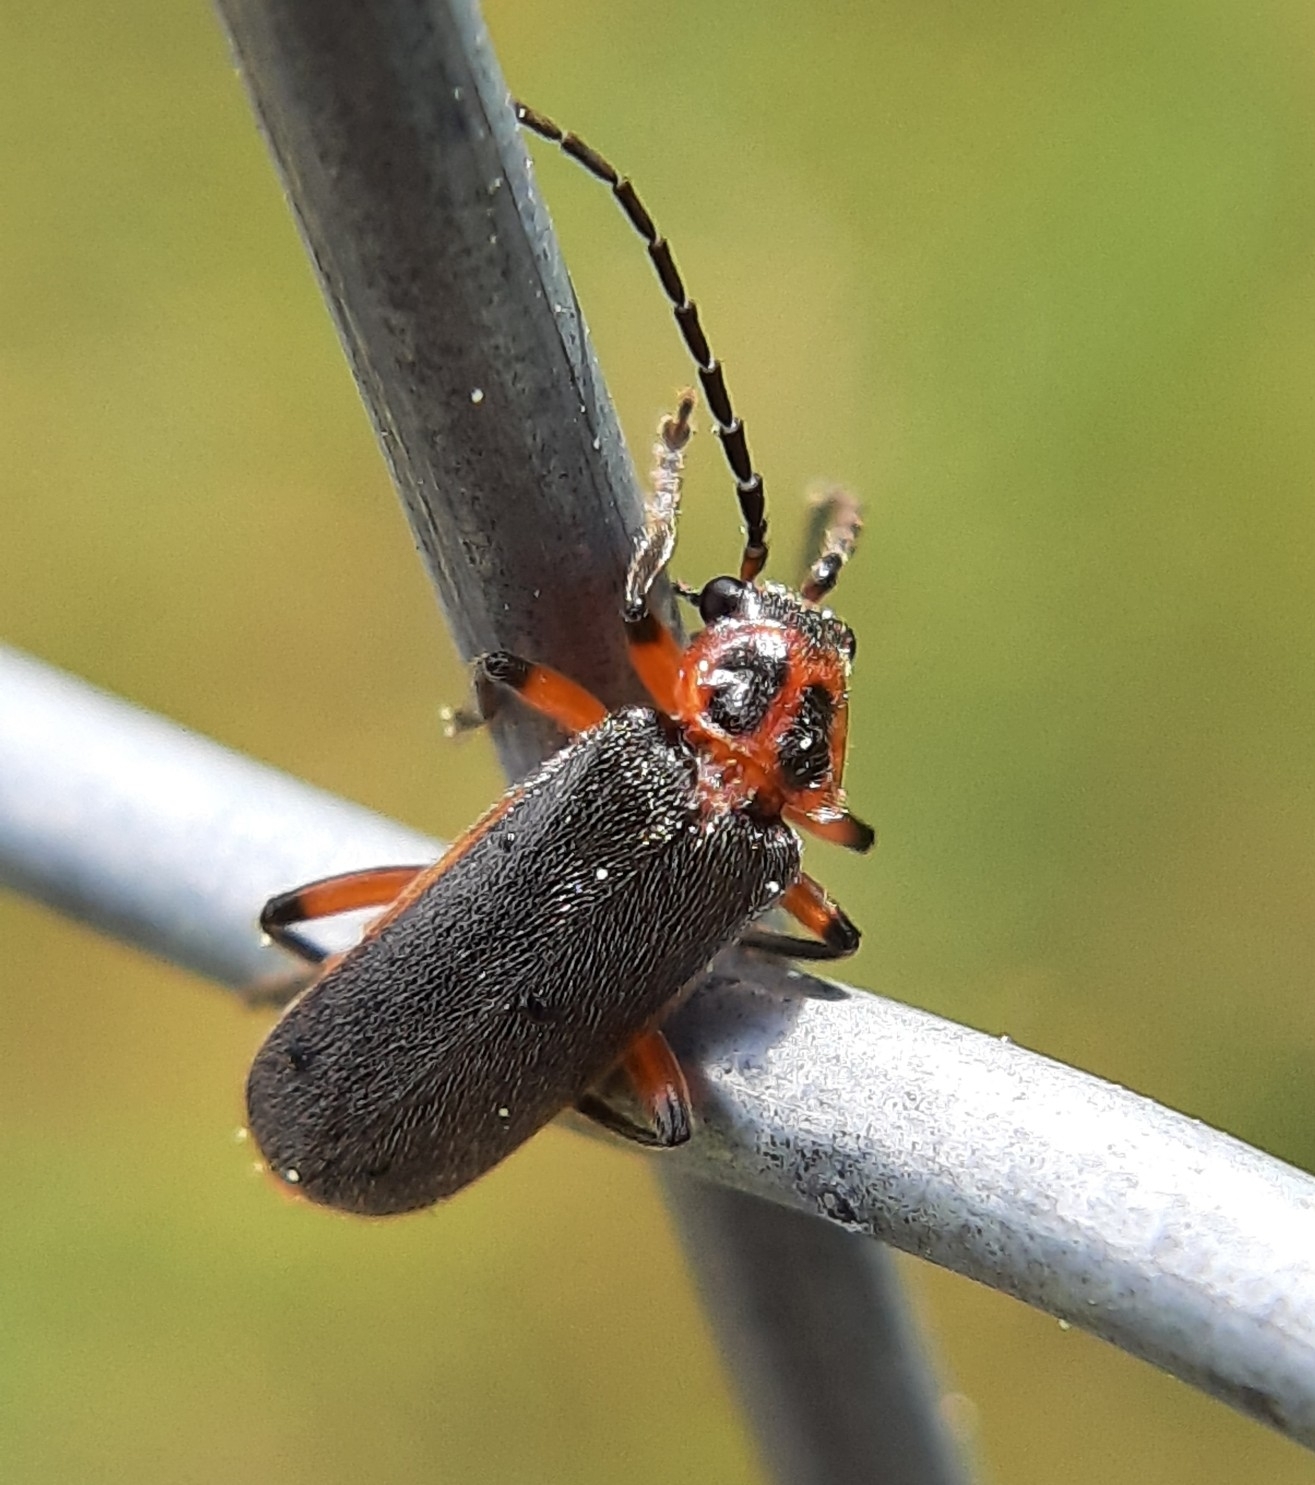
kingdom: Animalia
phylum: Arthropoda
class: Insecta
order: Coleoptera
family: Cantharidae
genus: Atalantycha
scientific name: Atalantycha bilineata
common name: Two-lined leatherwing
